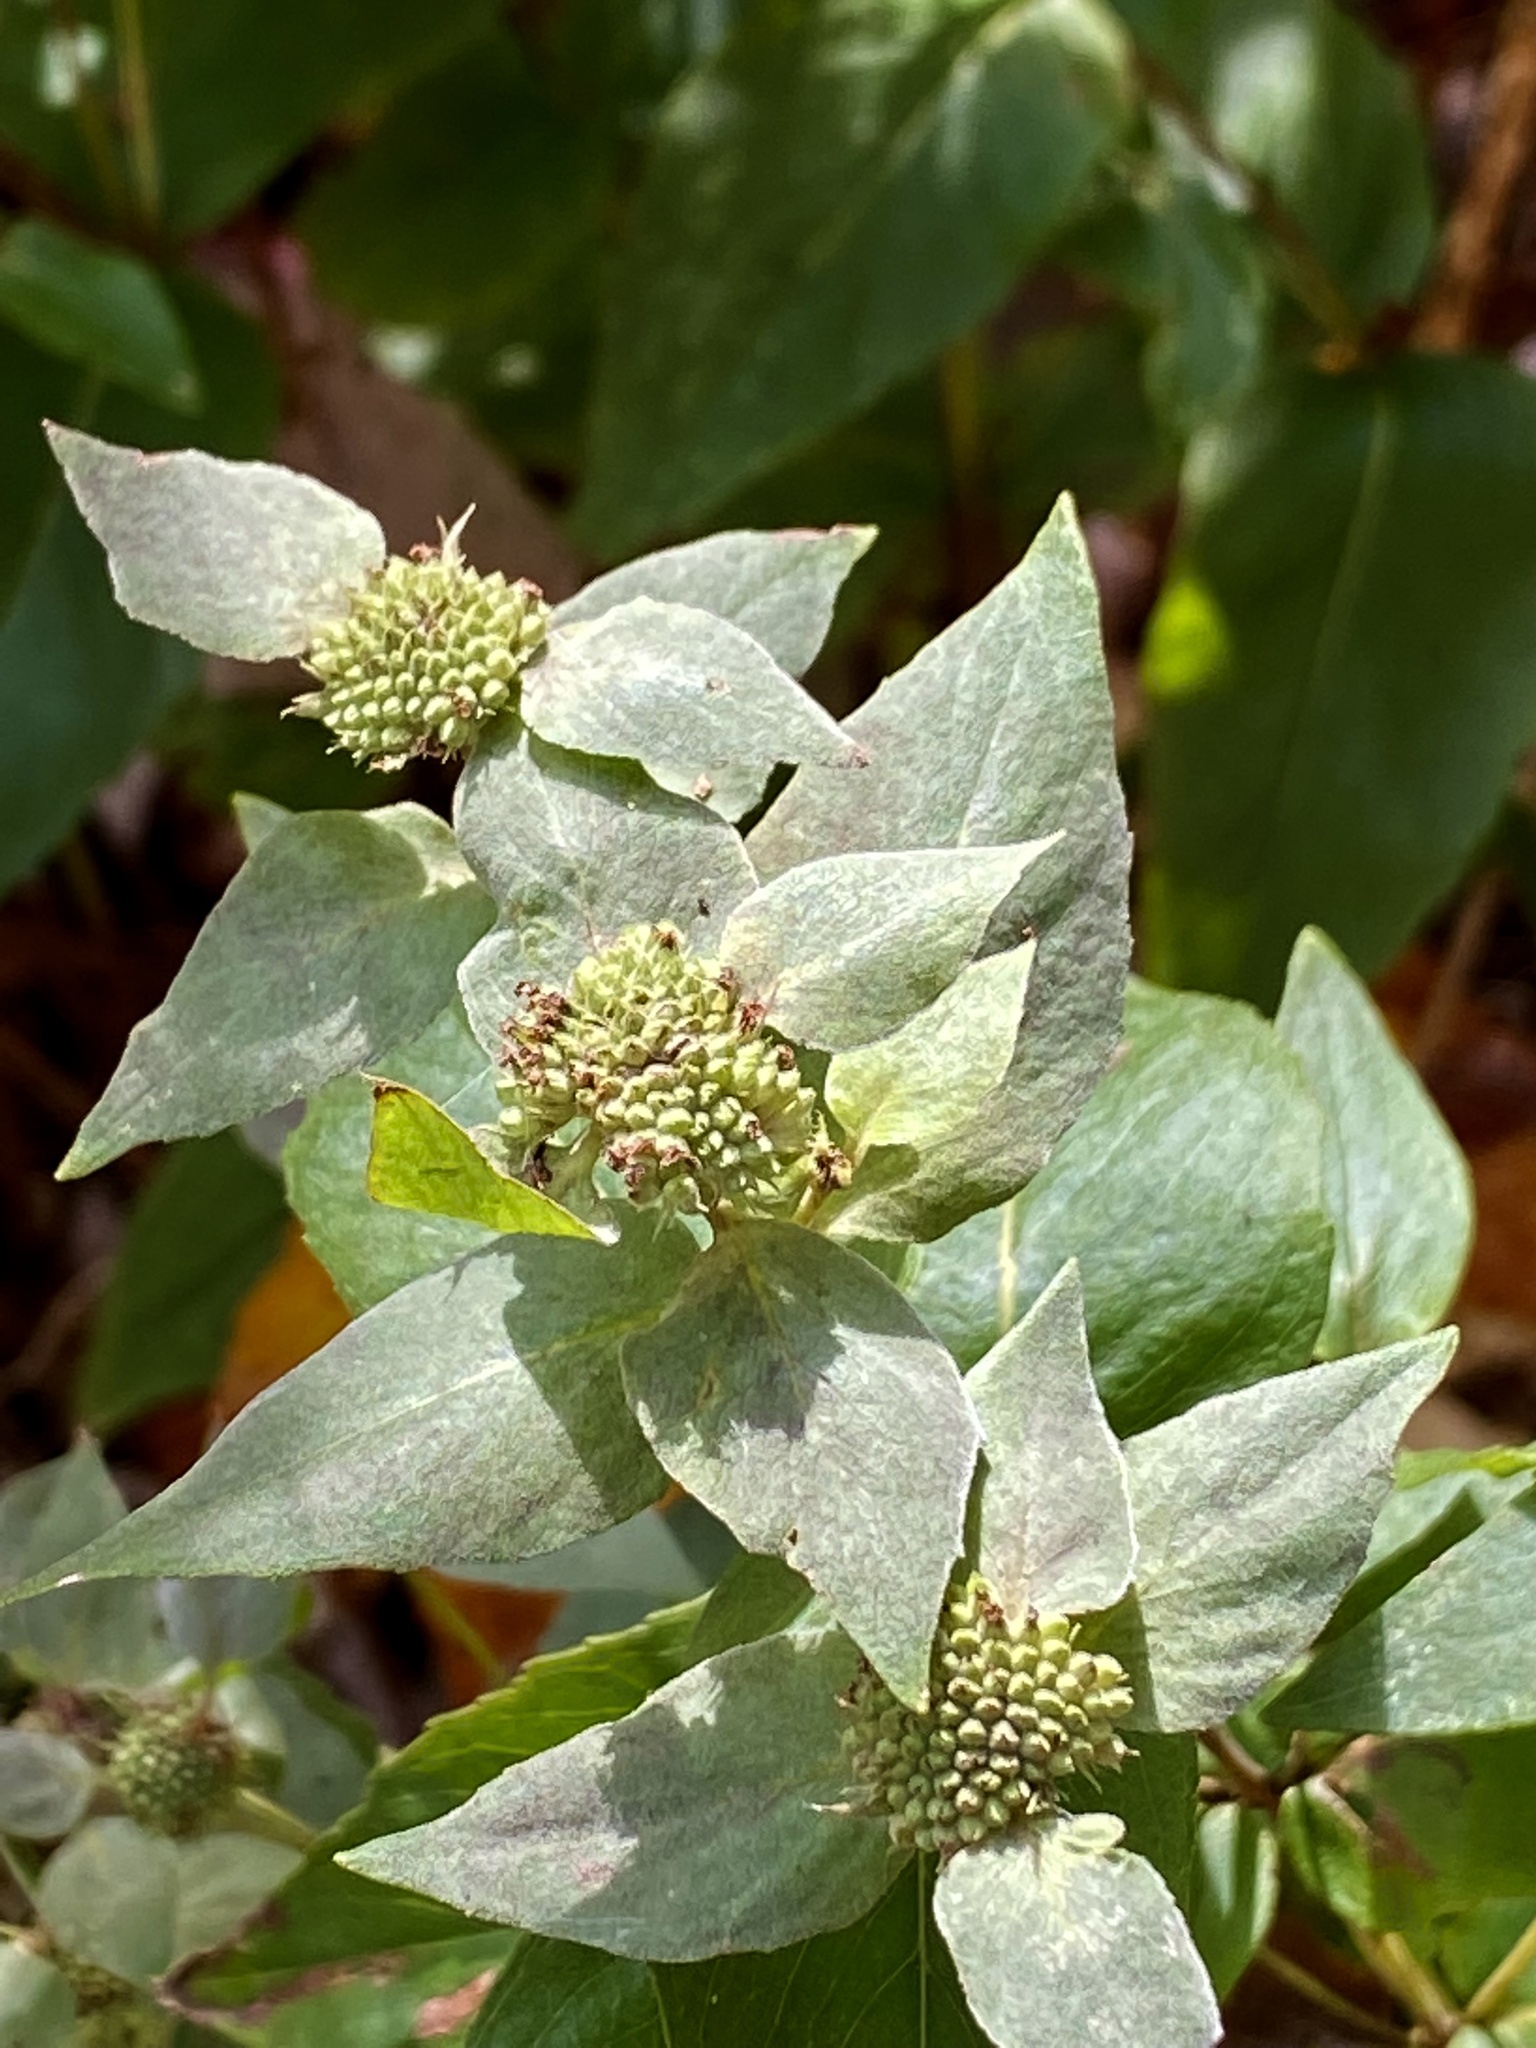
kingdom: Plantae
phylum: Tracheophyta
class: Magnoliopsida
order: Lamiales
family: Lamiaceae
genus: Pycnanthemum
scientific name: Pycnanthemum muticum
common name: Blunt mountain-mint
